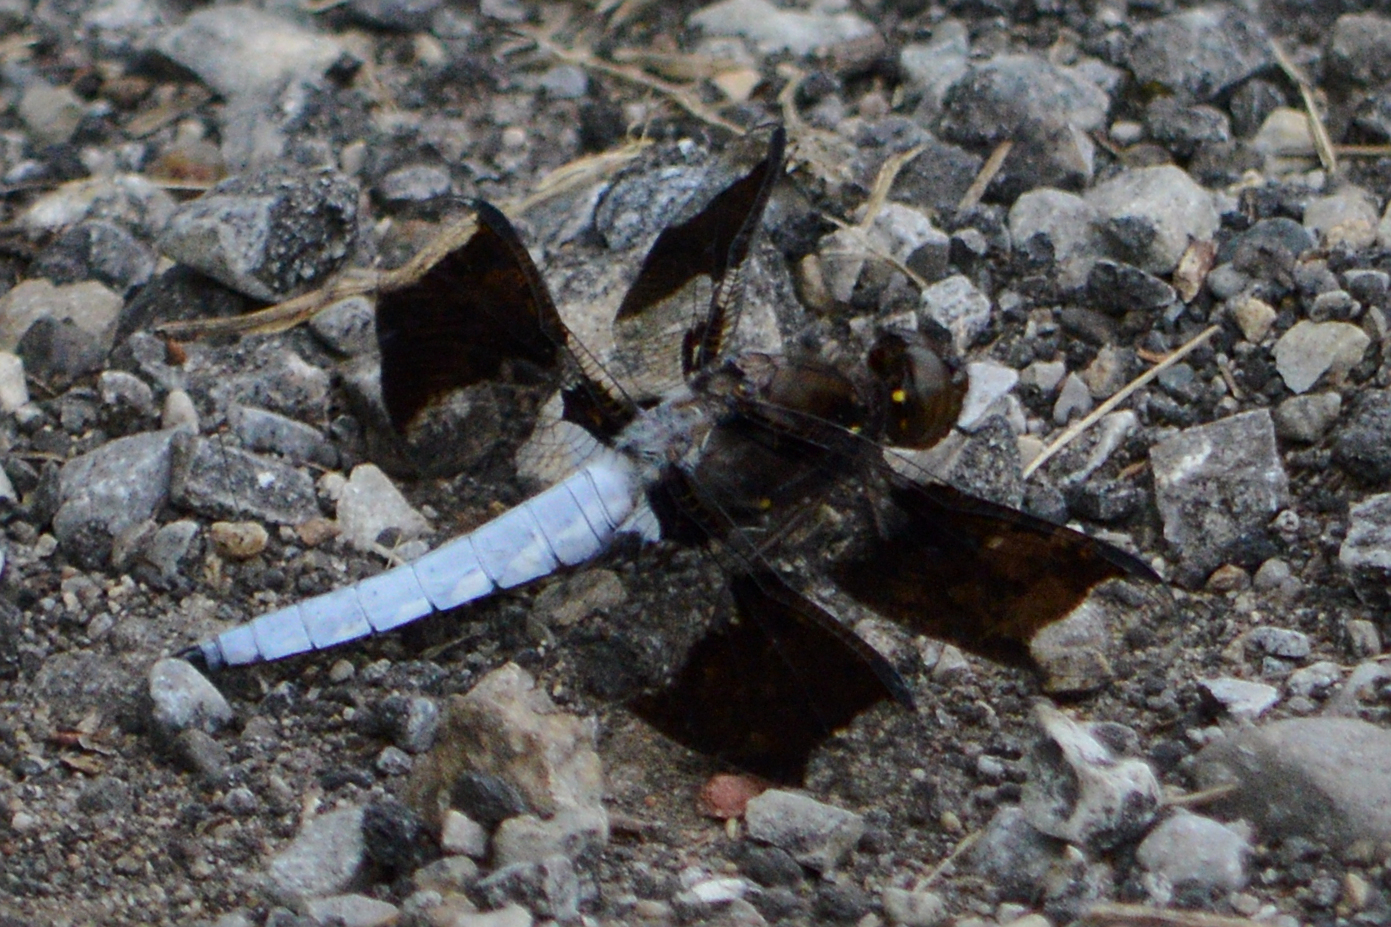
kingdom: Animalia
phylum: Arthropoda
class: Insecta
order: Odonata
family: Libellulidae
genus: Plathemis
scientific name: Plathemis lydia
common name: Common whitetail
